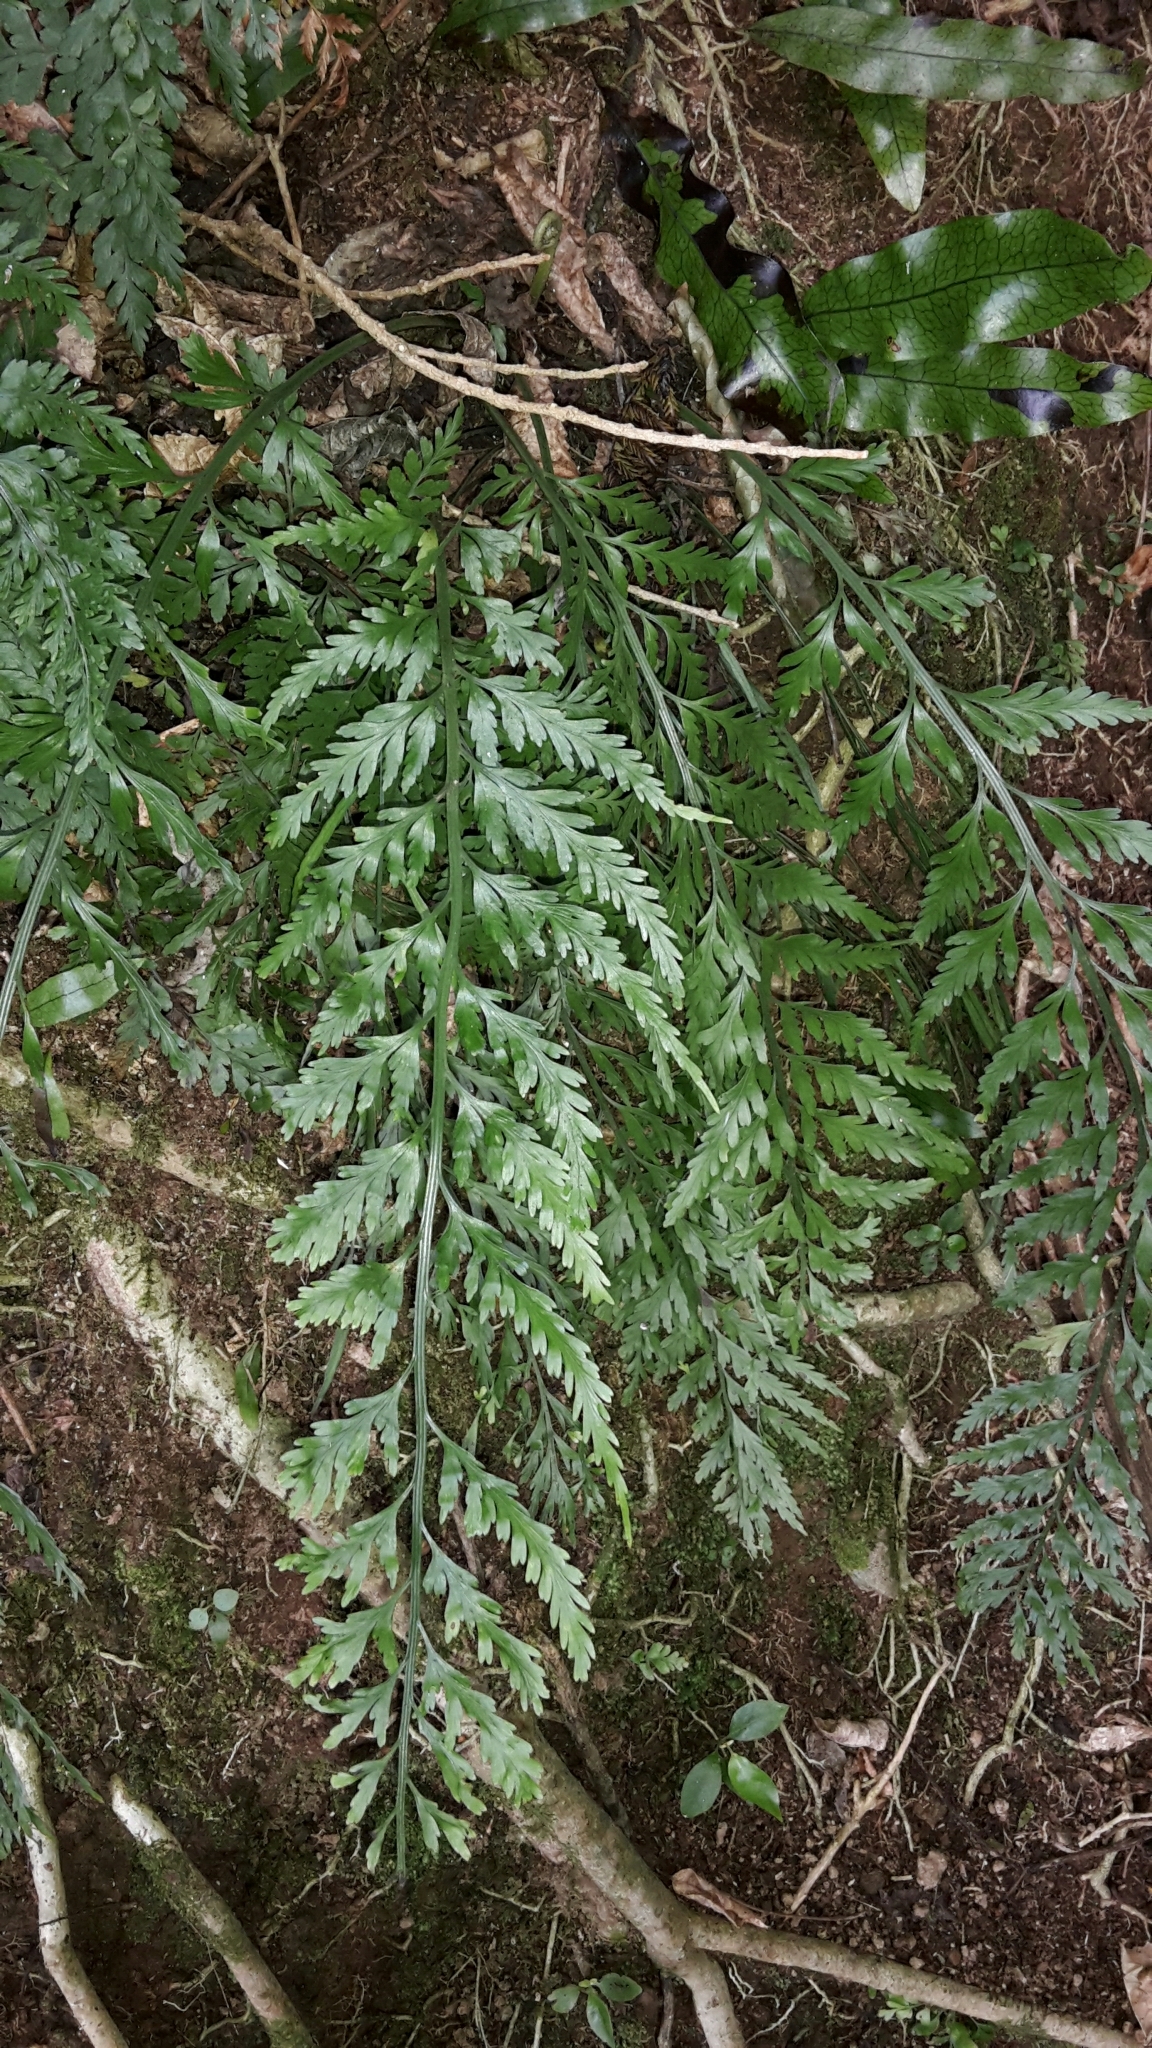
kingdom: Plantae
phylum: Tracheophyta
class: Polypodiopsida
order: Polypodiales
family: Aspleniaceae
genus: Asplenium
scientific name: Asplenium flaccidum
